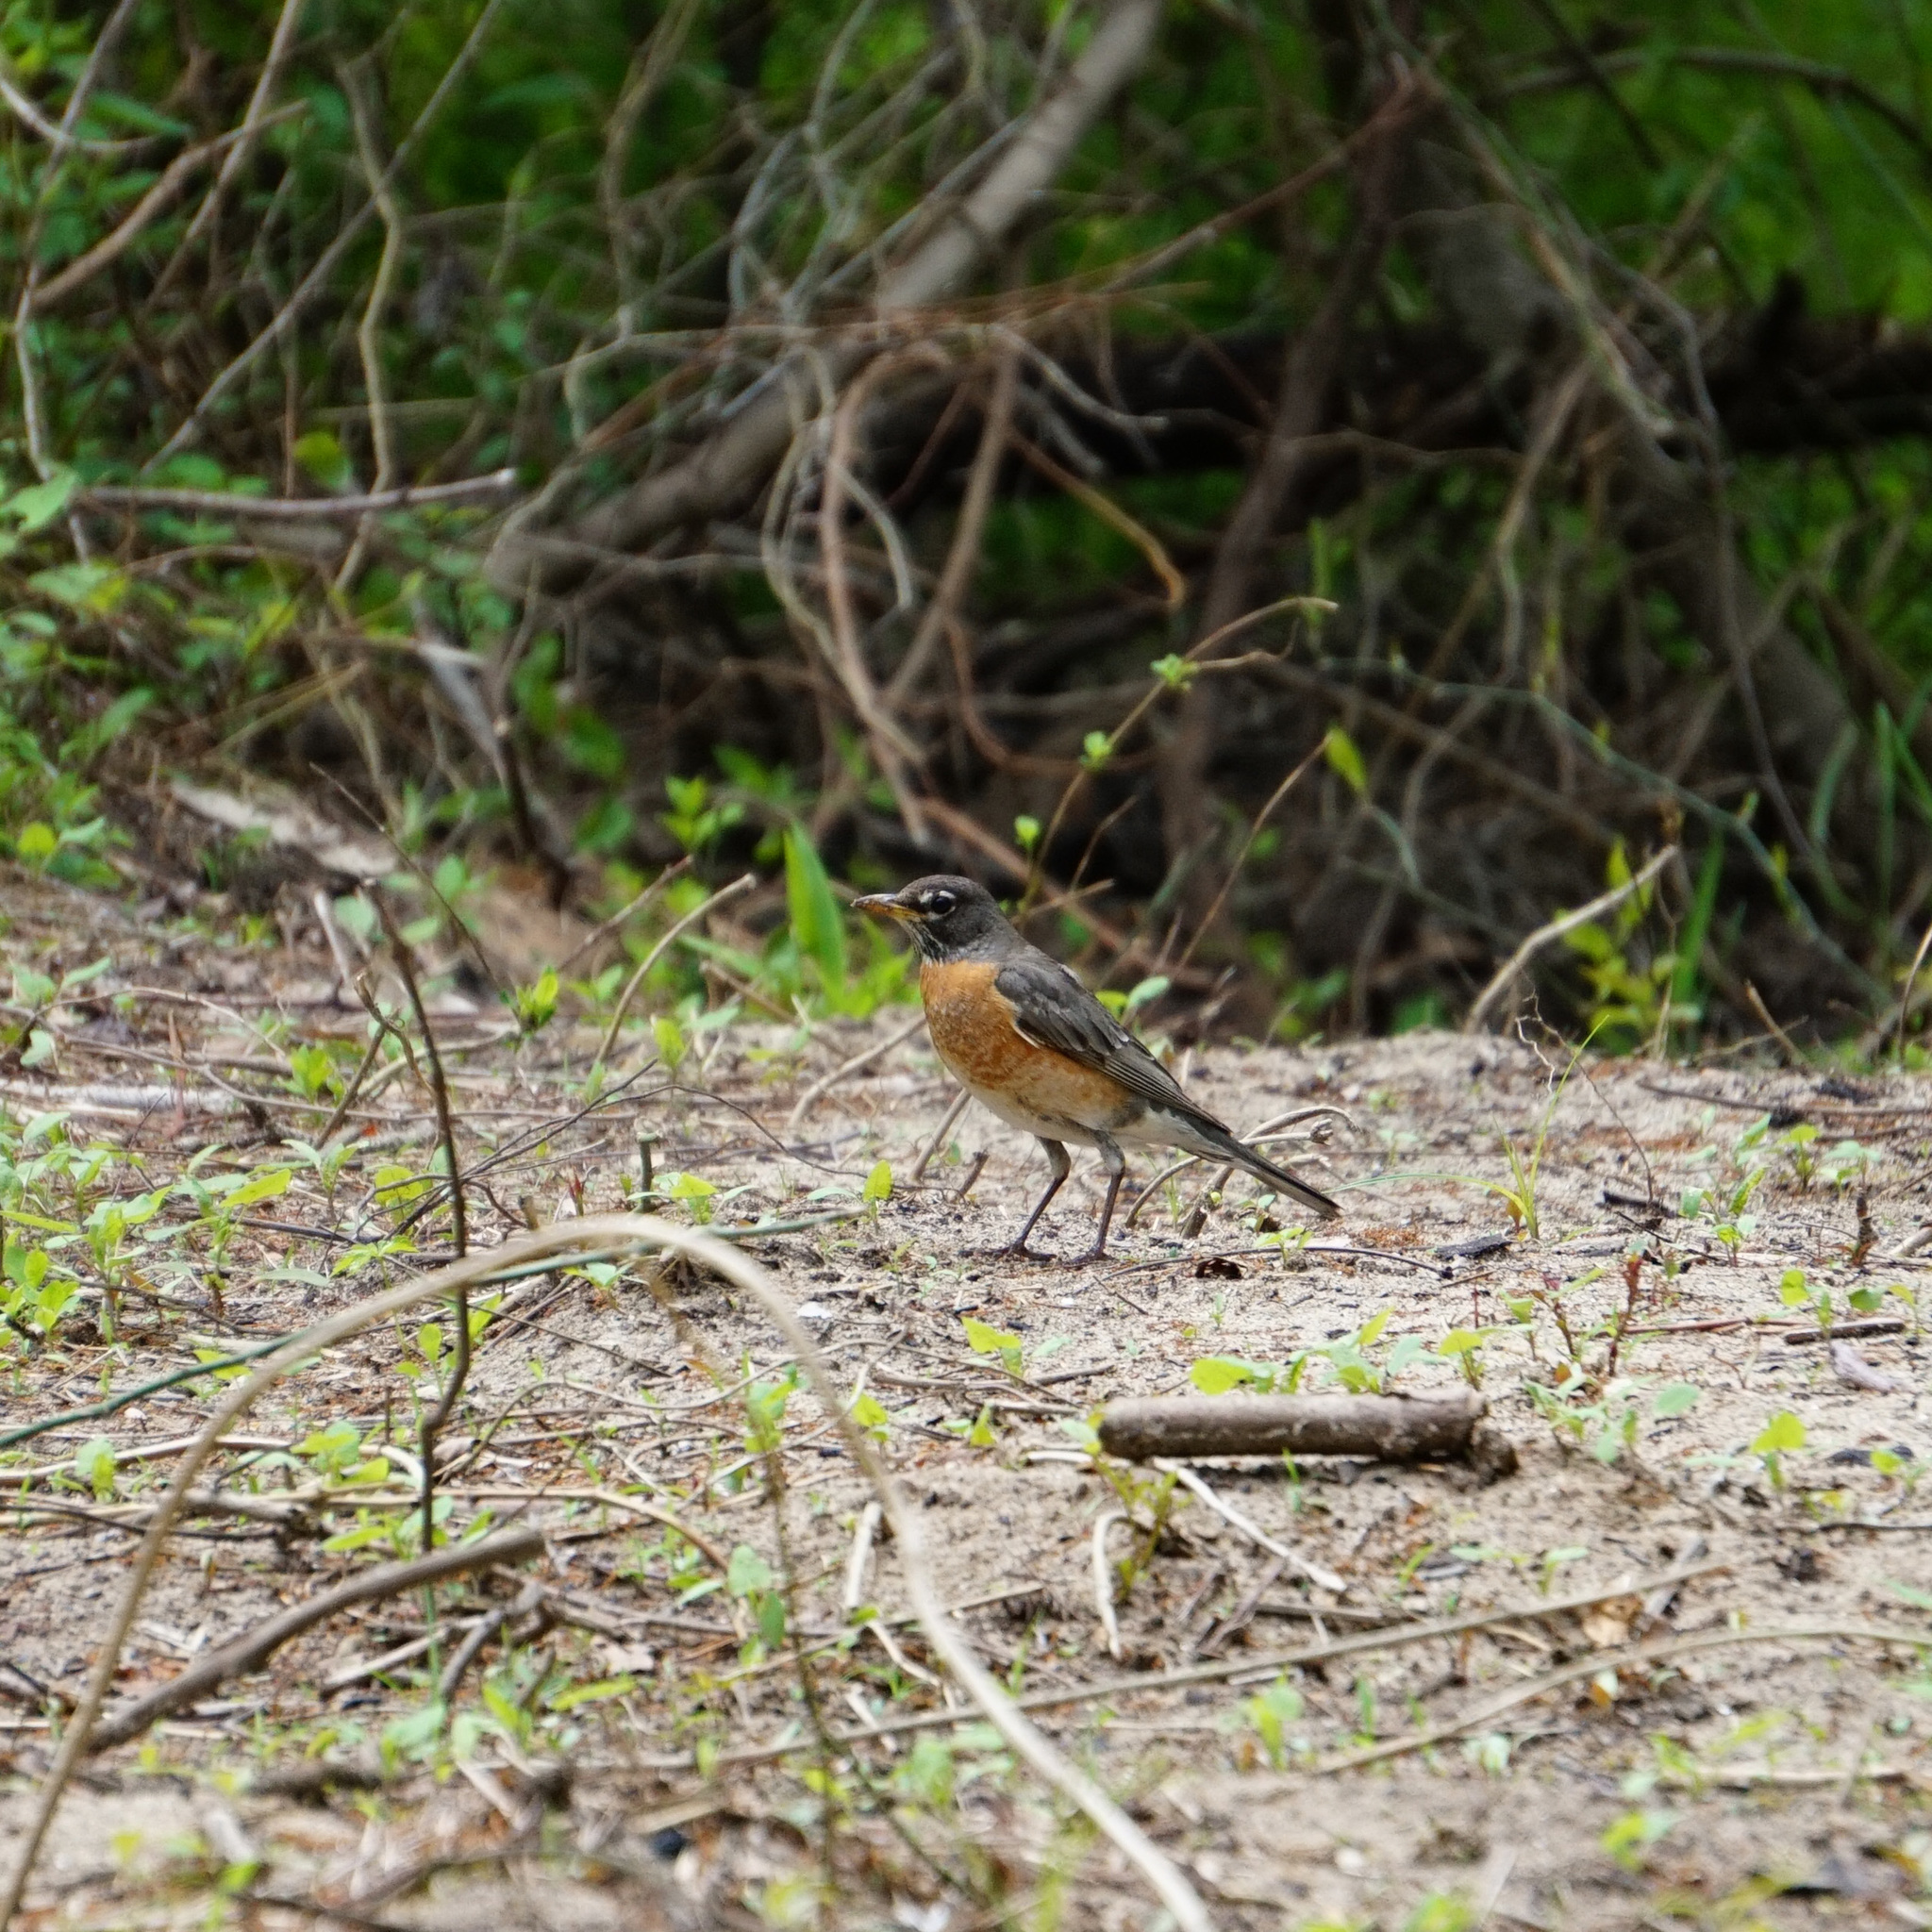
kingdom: Animalia
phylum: Chordata
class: Aves
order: Passeriformes
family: Turdidae
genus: Turdus
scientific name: Turdus migratorius
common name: American robin
